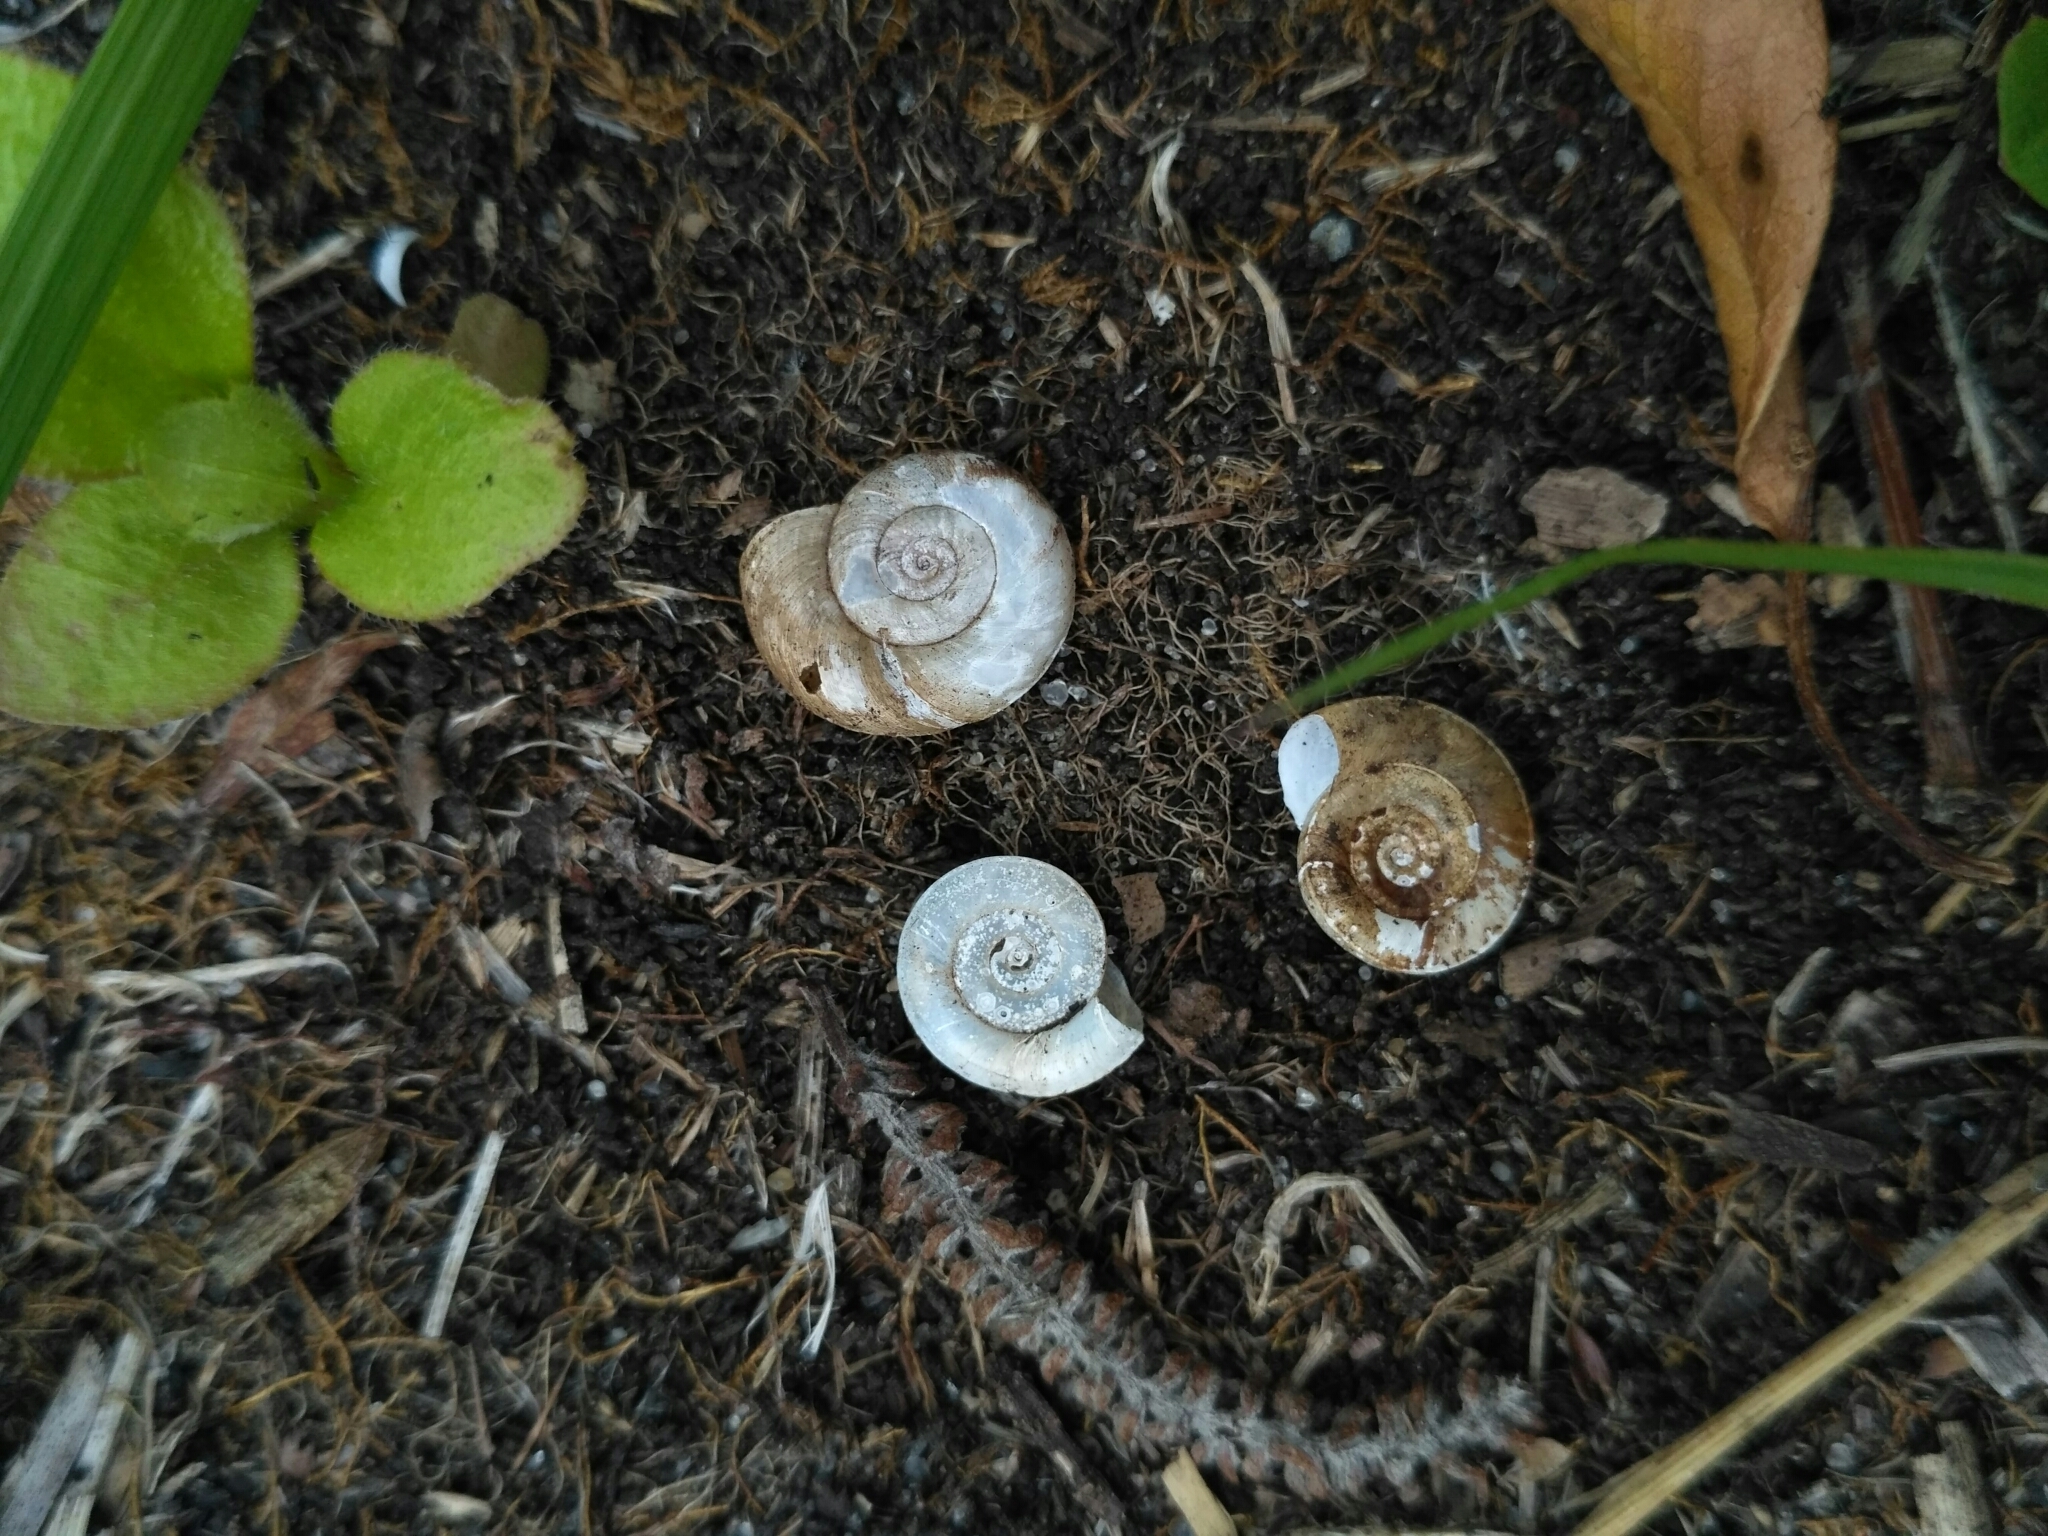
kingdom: Animalia
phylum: Mollusca
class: Gastropoda
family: Planorbidae
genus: Planorbis
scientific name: Planorbis planorbis
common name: Margined ramshorn
